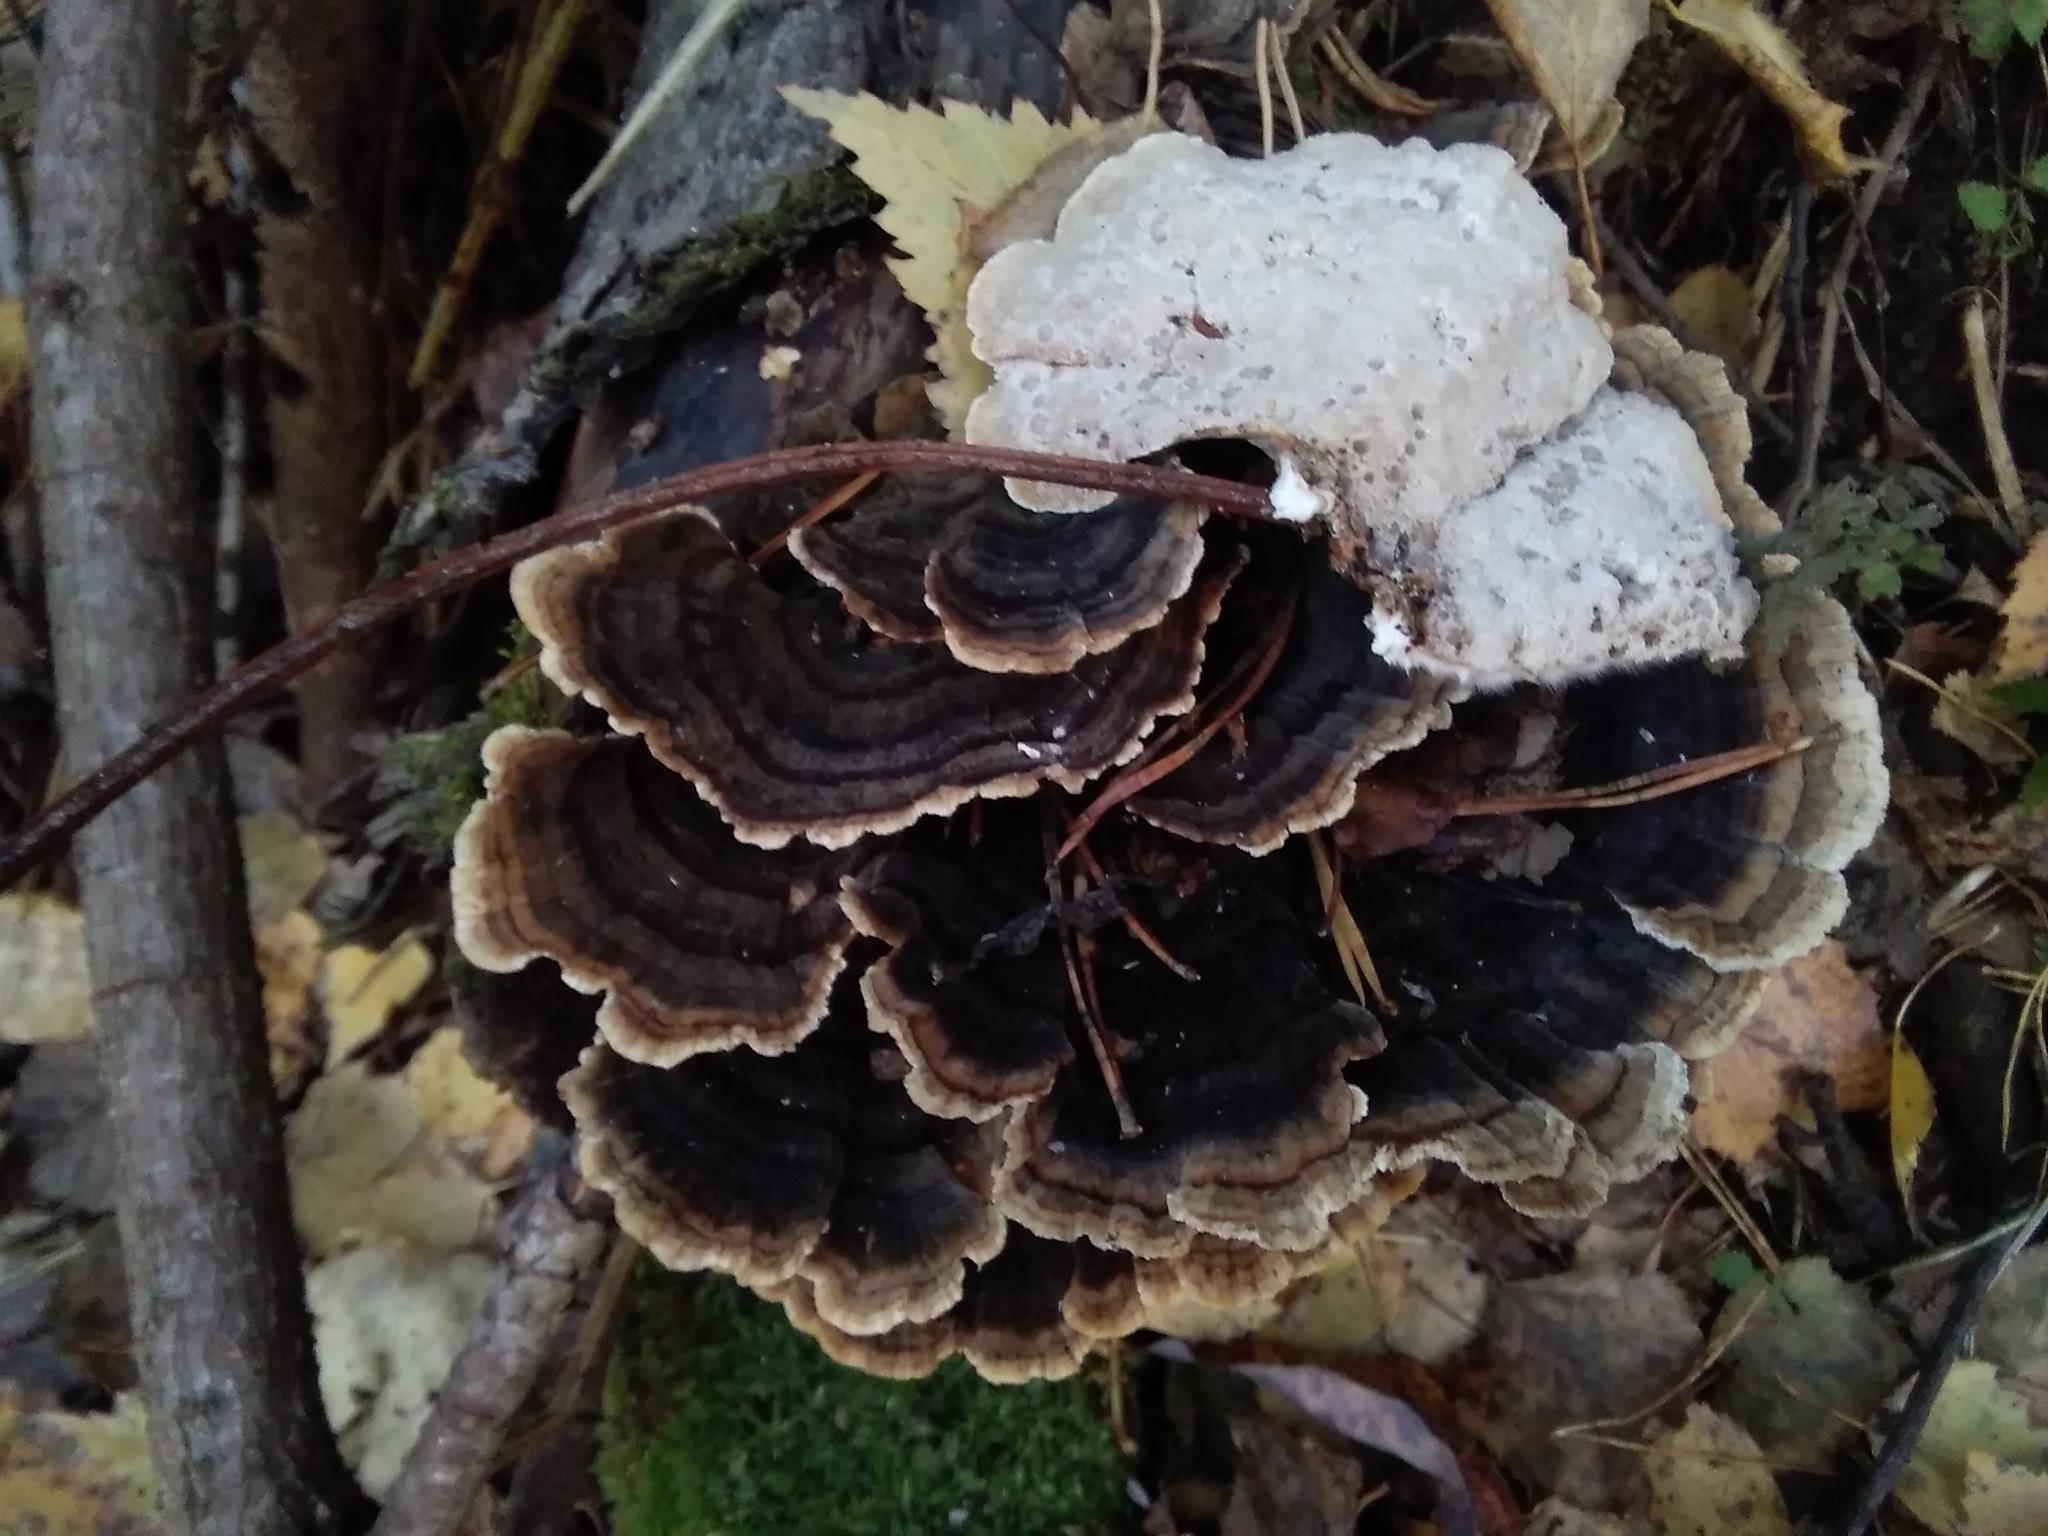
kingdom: Fungi
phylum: Basidiomycota
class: Agaricomycetes
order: Polyporales
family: Polyporaceae
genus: Trametes
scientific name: Trametes versicolor
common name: Turkeytail
